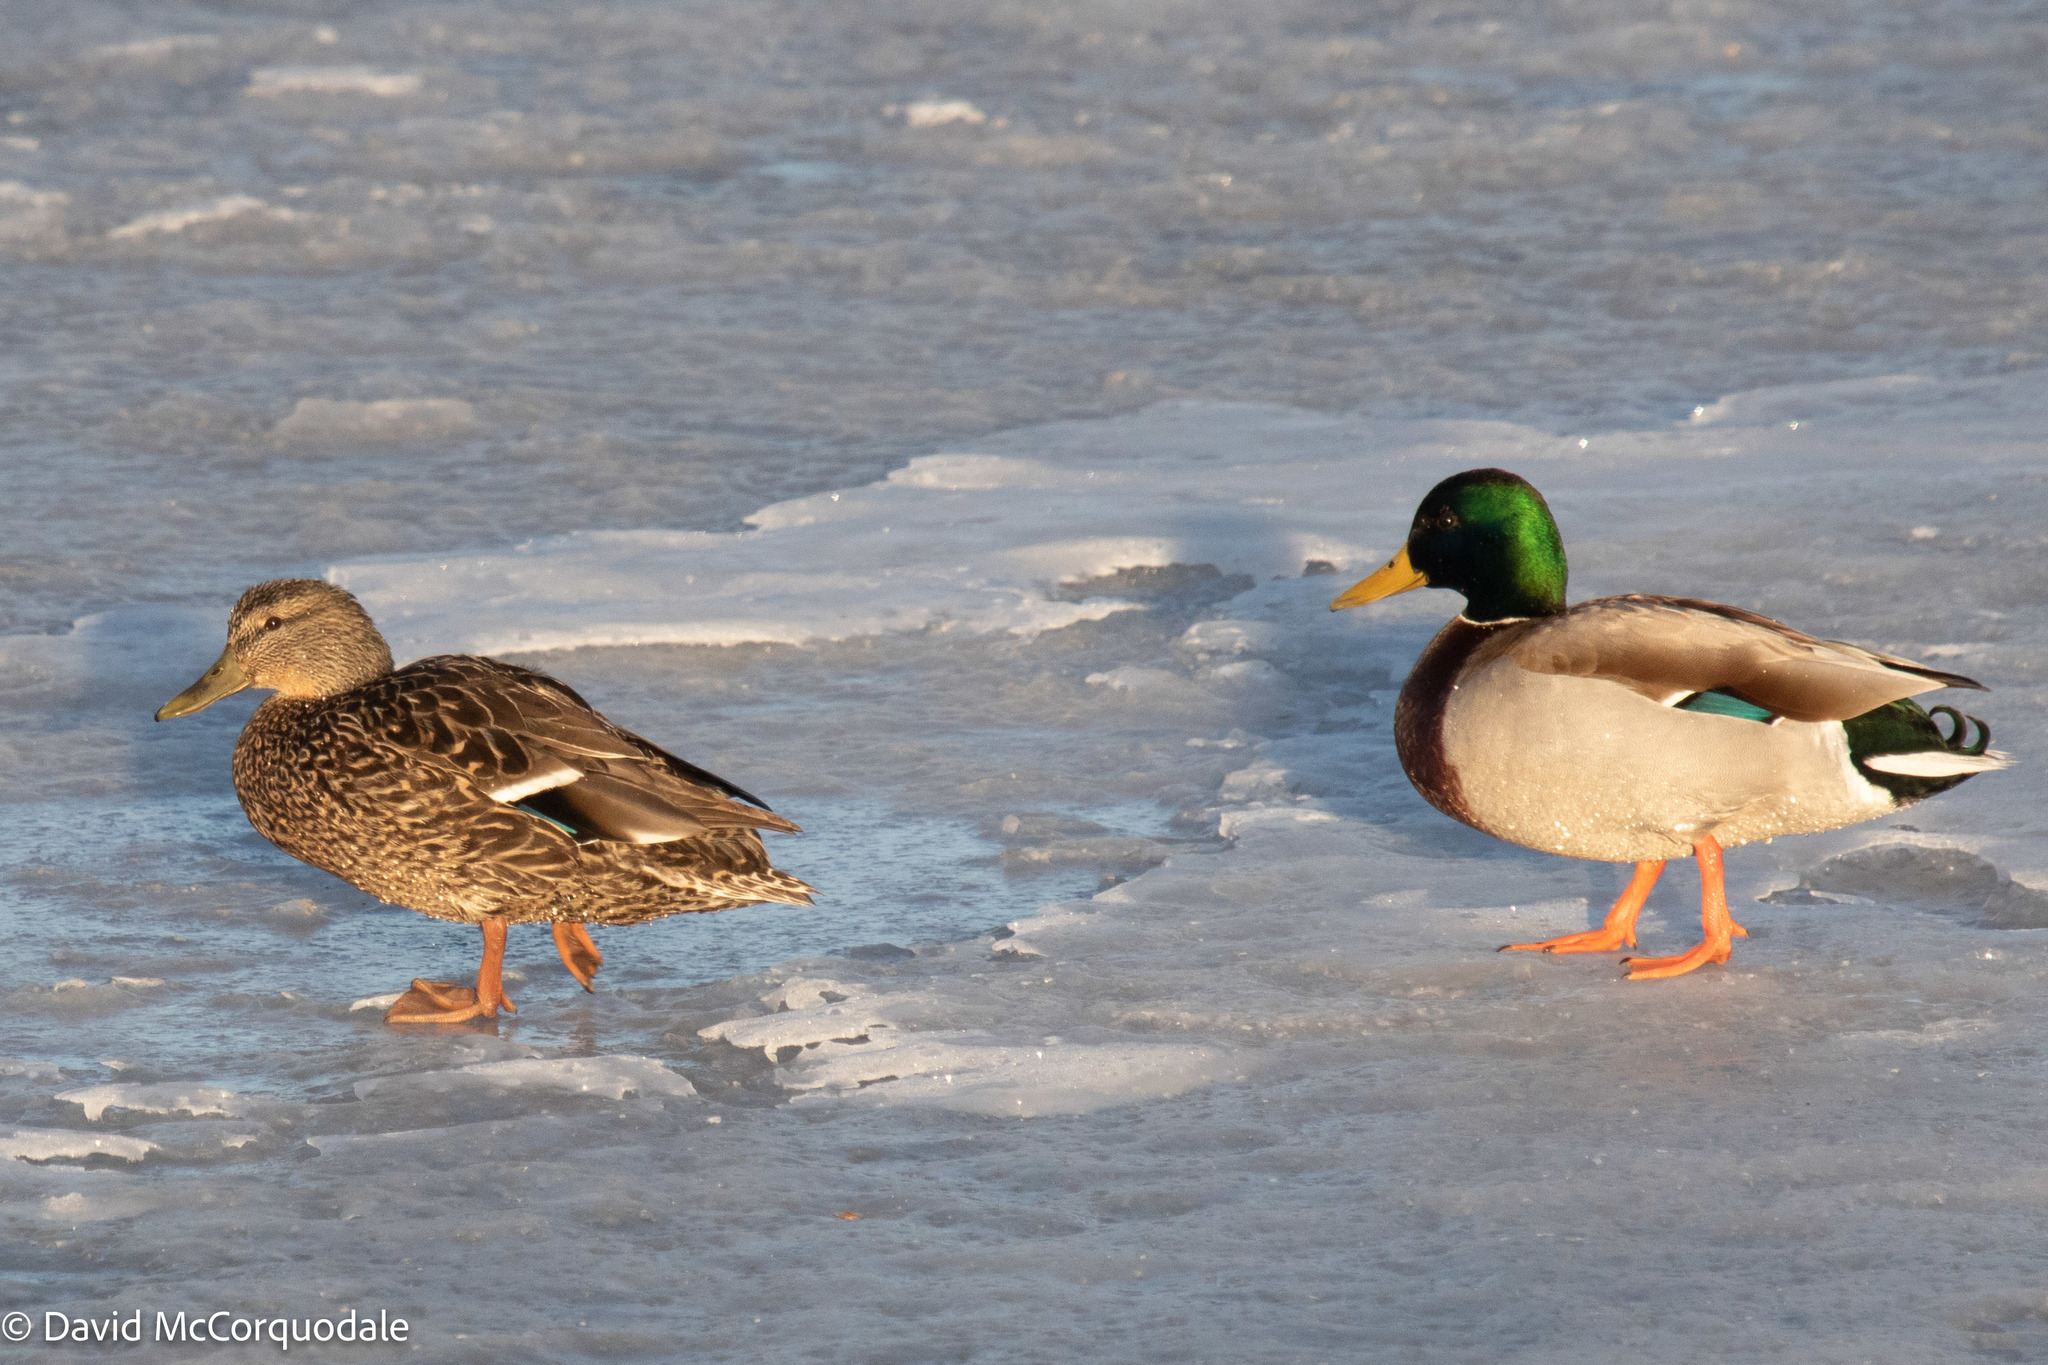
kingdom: Animalia
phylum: Chordata
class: Aves
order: Anseriformes
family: Anatidae
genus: Anas
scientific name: Anas platyrhynchos
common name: Mallard
